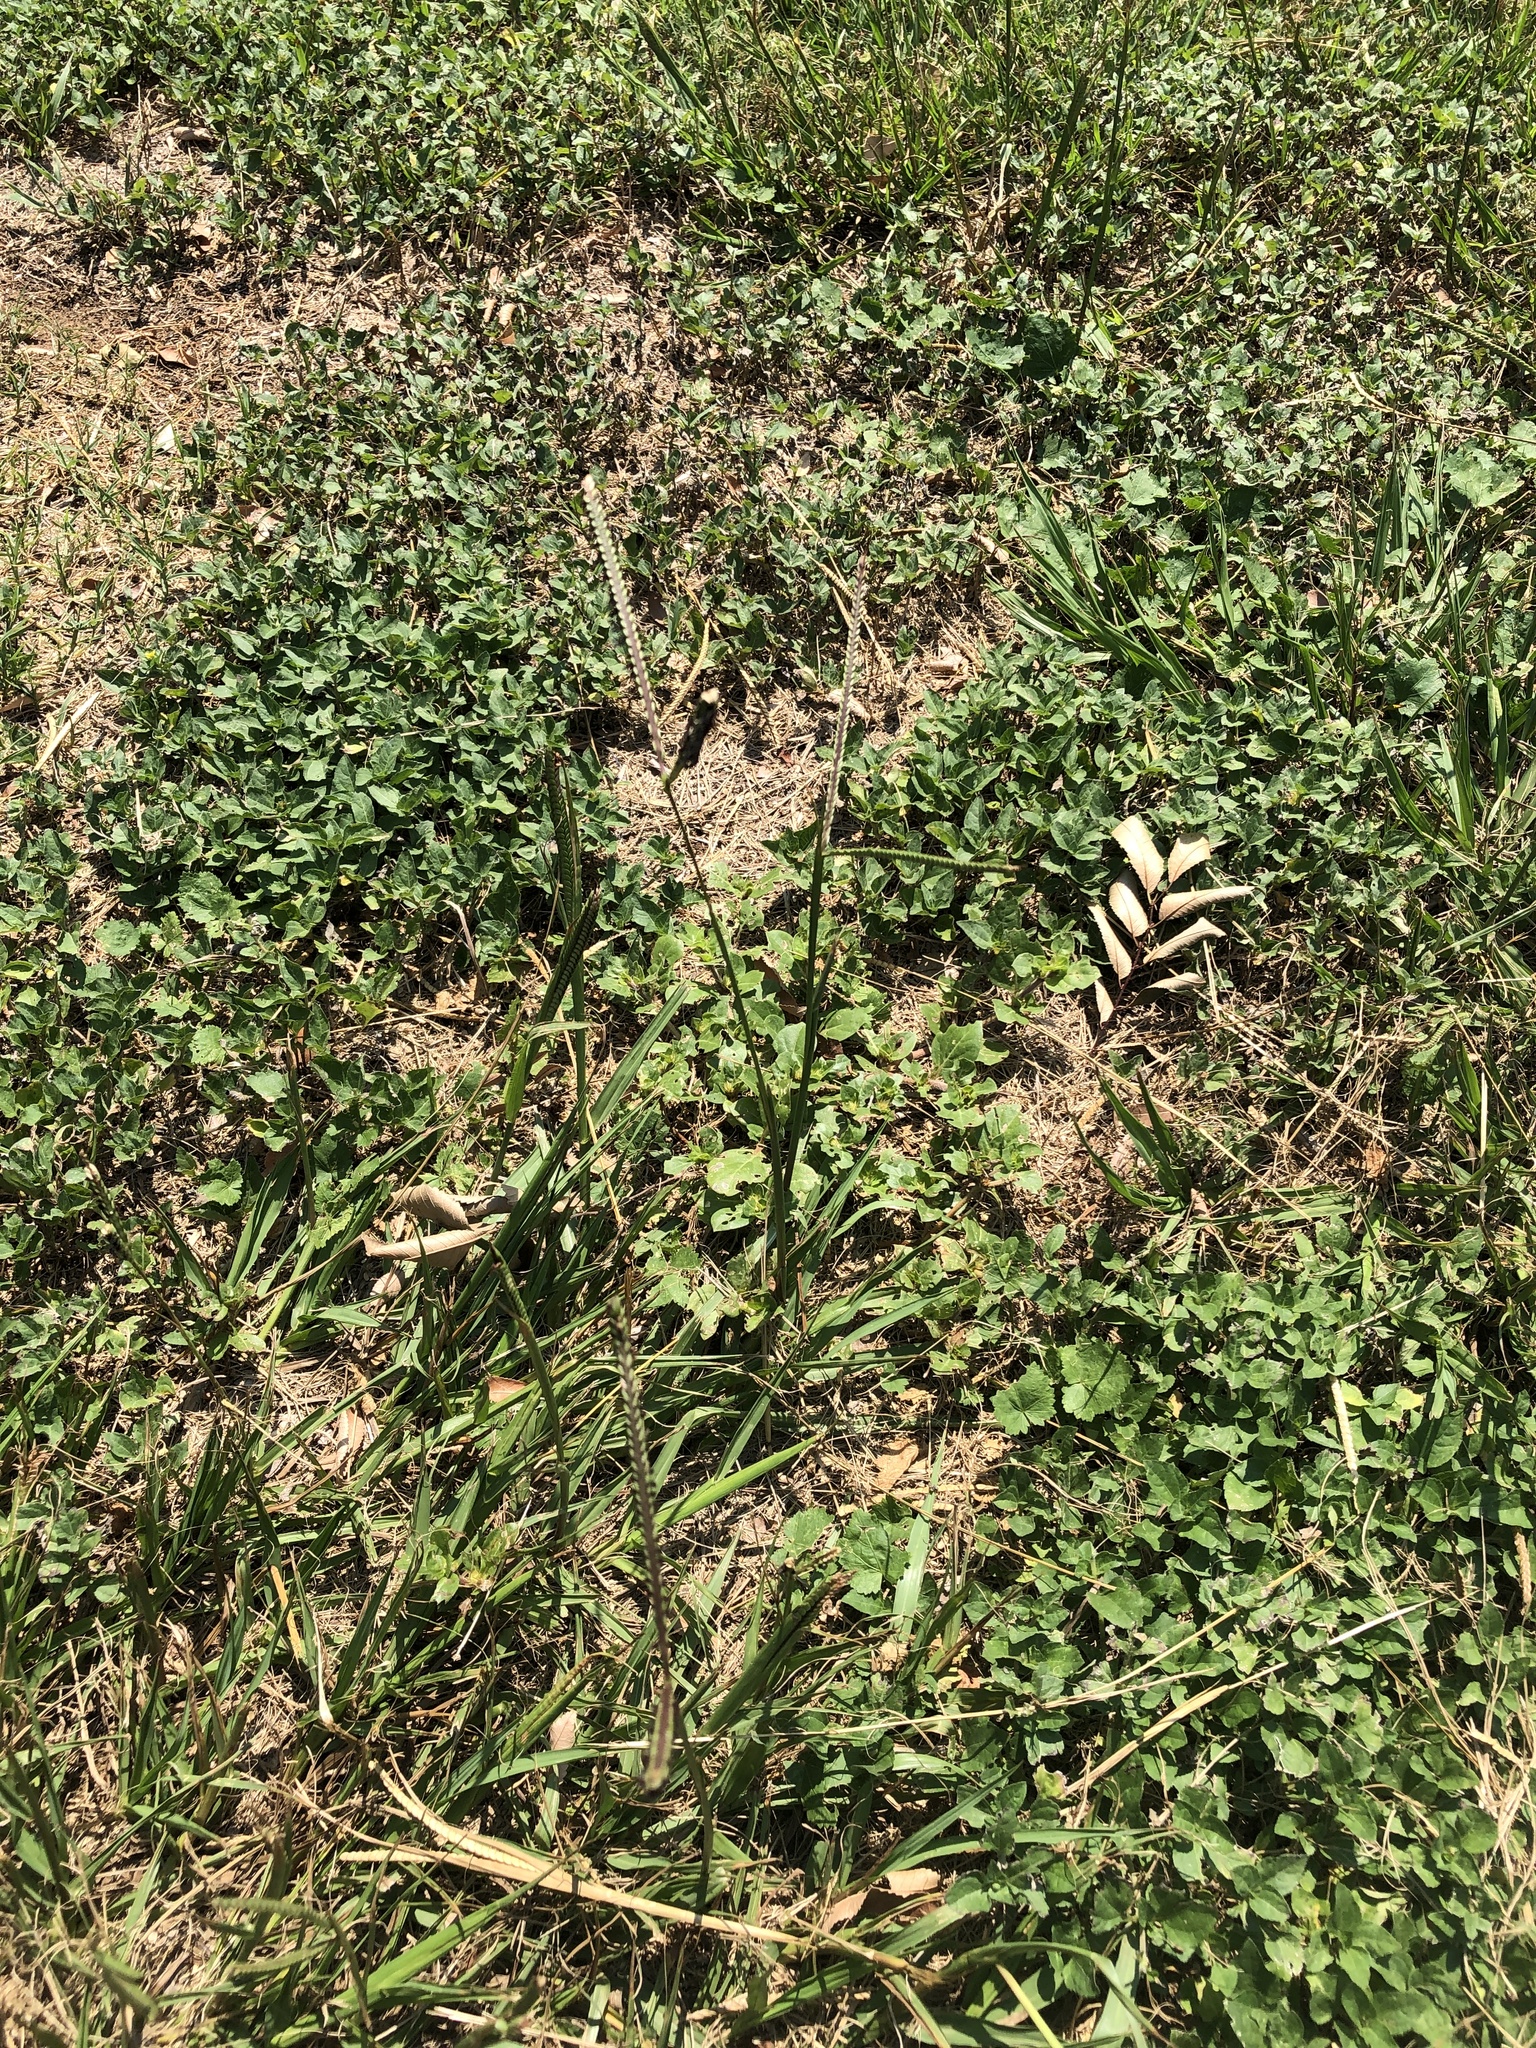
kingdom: Plantae
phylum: Tracheophyta
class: Liliopsida
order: Poales
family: Poaceae
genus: Paspalum
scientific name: Paspalum notatum
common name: Bahiagrass
